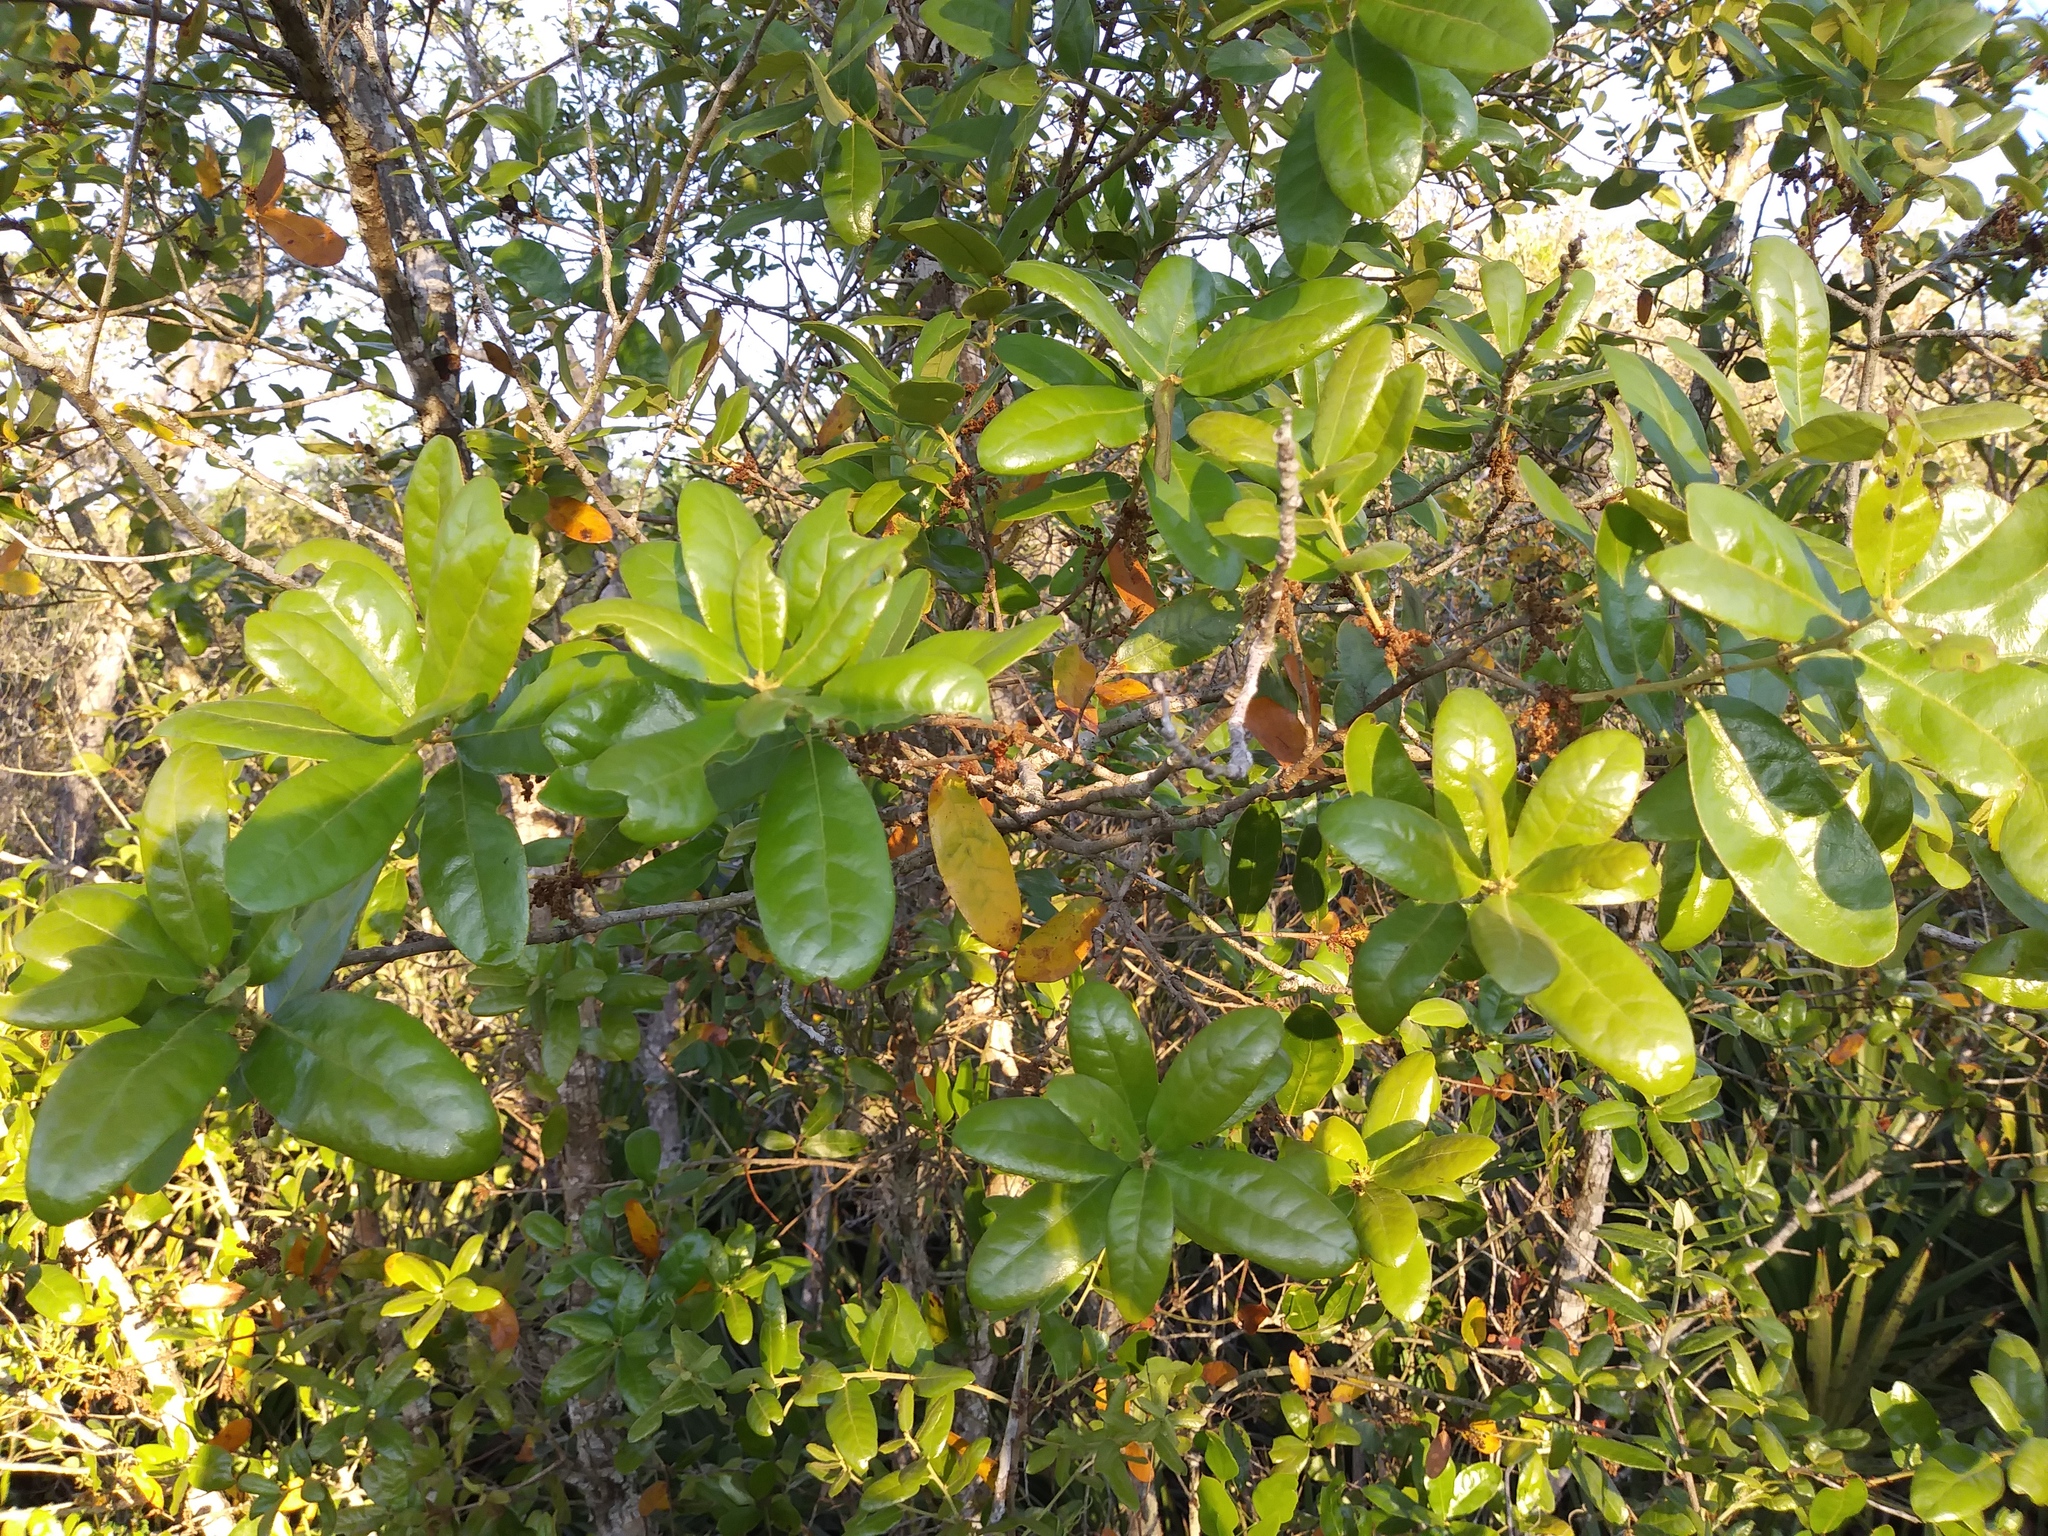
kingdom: Plantae
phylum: Tracheophyta
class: Magnoliopsida
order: Fagales
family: Fagaceae
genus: Quercus
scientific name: Quercus chapmanii
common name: Chapman oak
